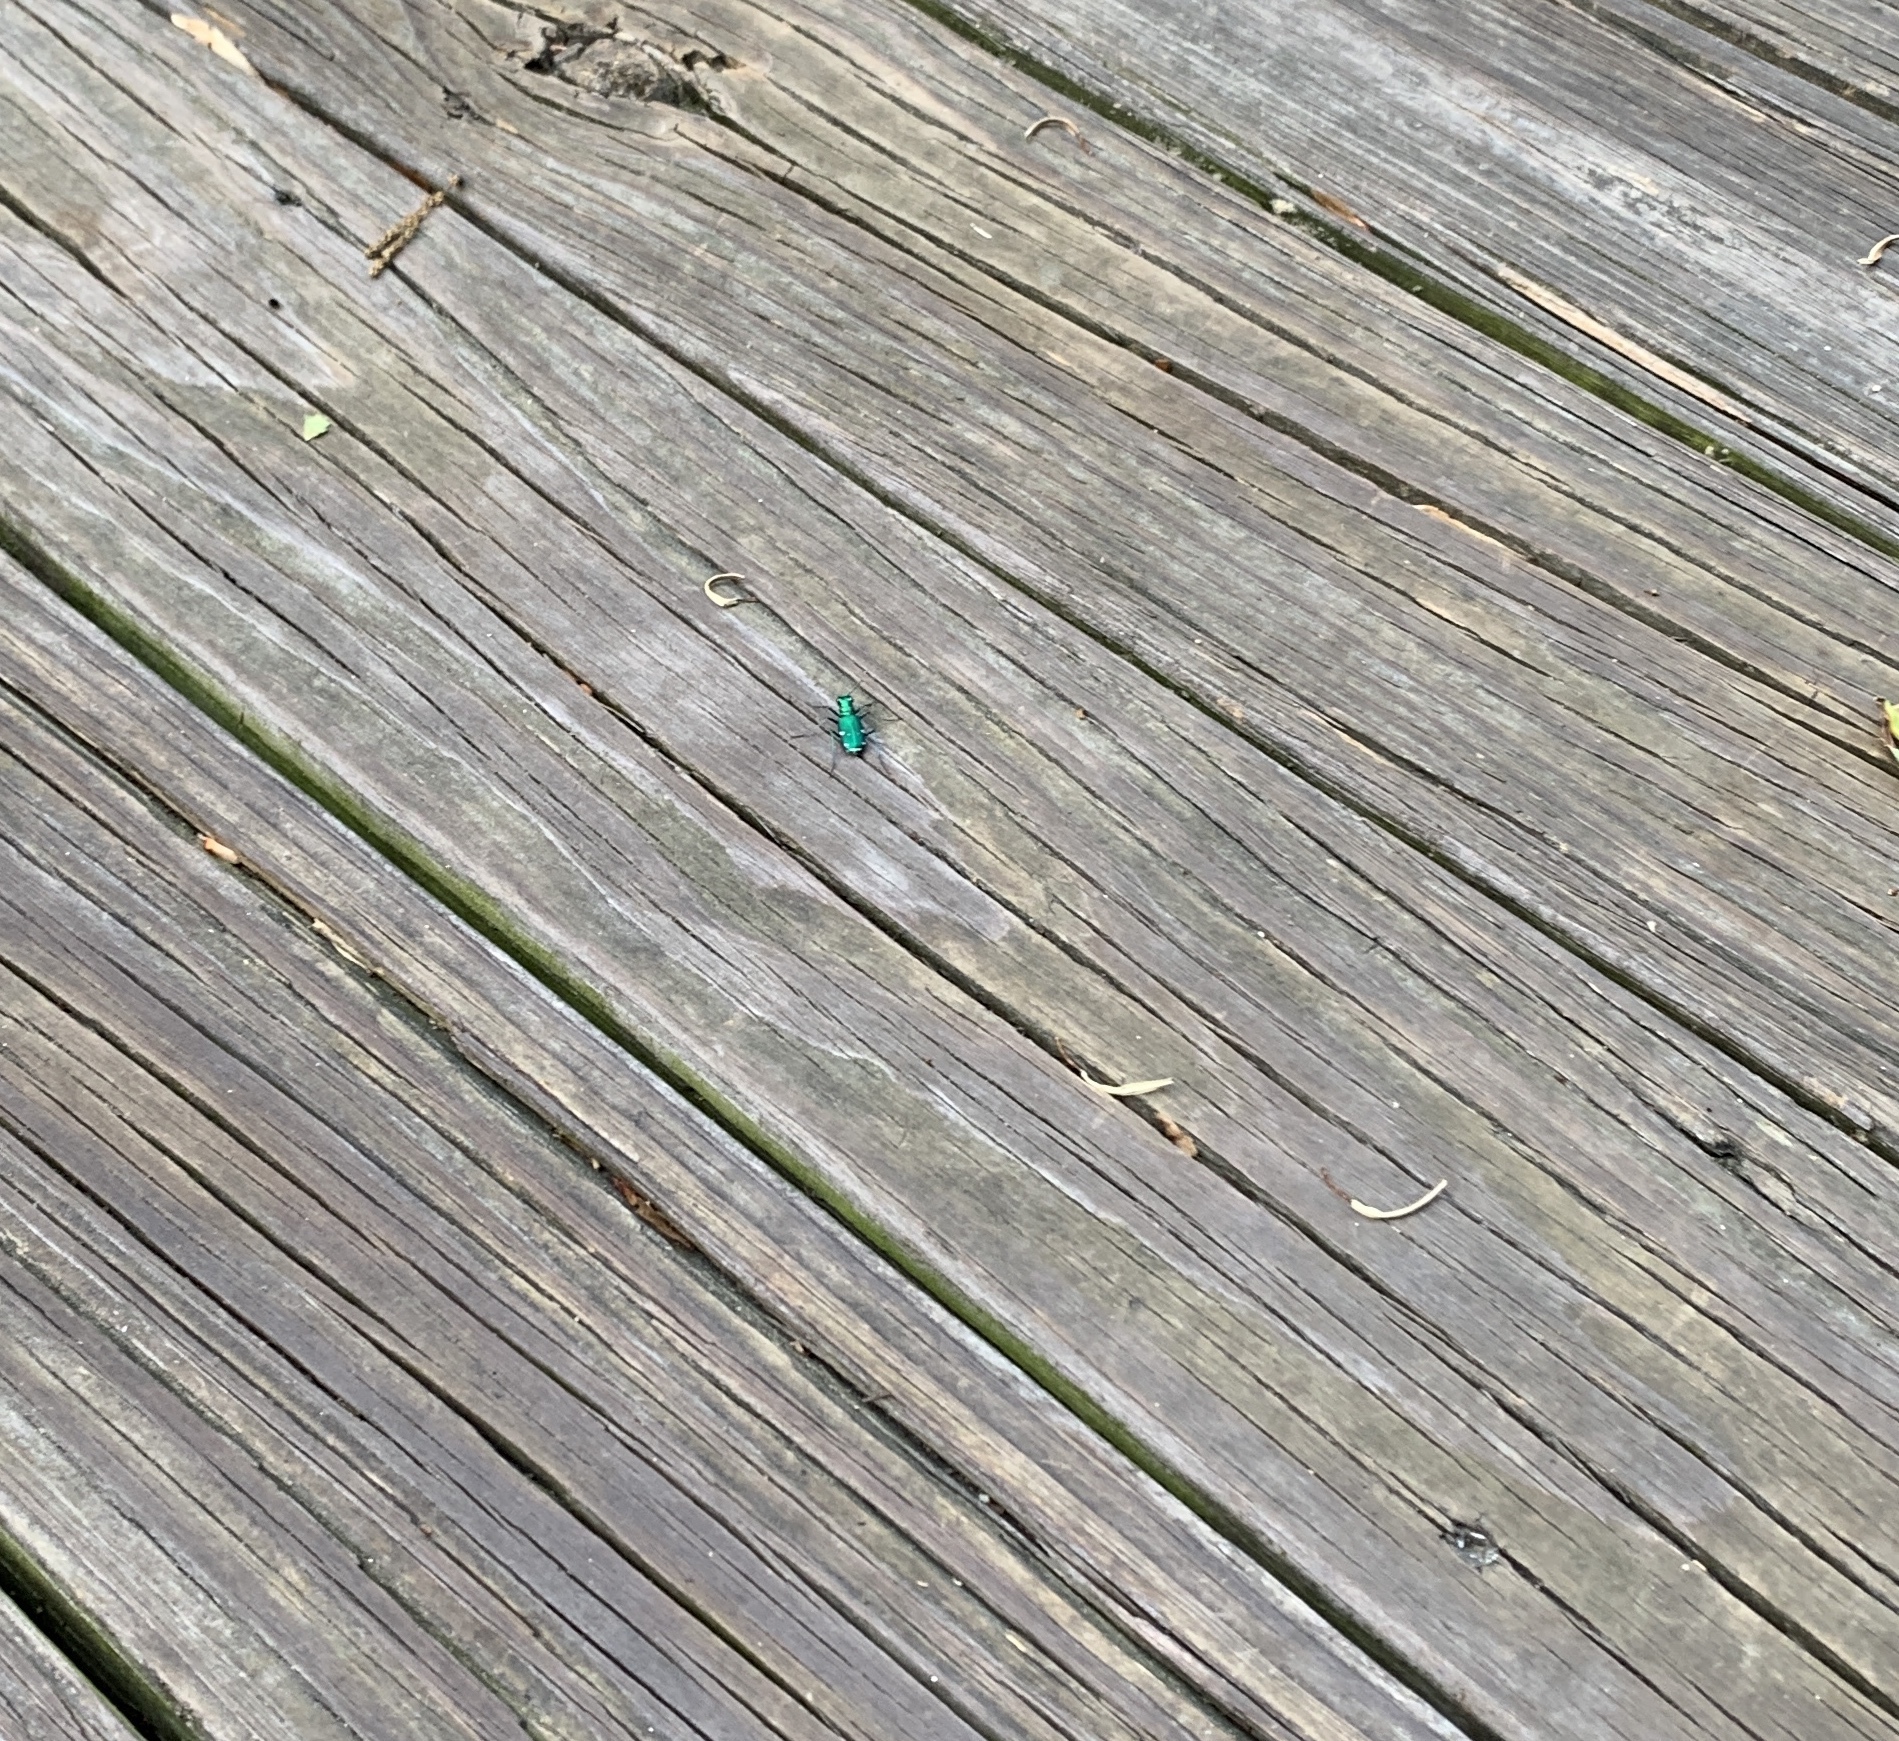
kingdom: Animalia
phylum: Arthropoda
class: Insecta
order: Coleoptera
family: Carabidae
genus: Cicindela
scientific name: Cicindela sexguttata
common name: Six-spotted tiger beetle
